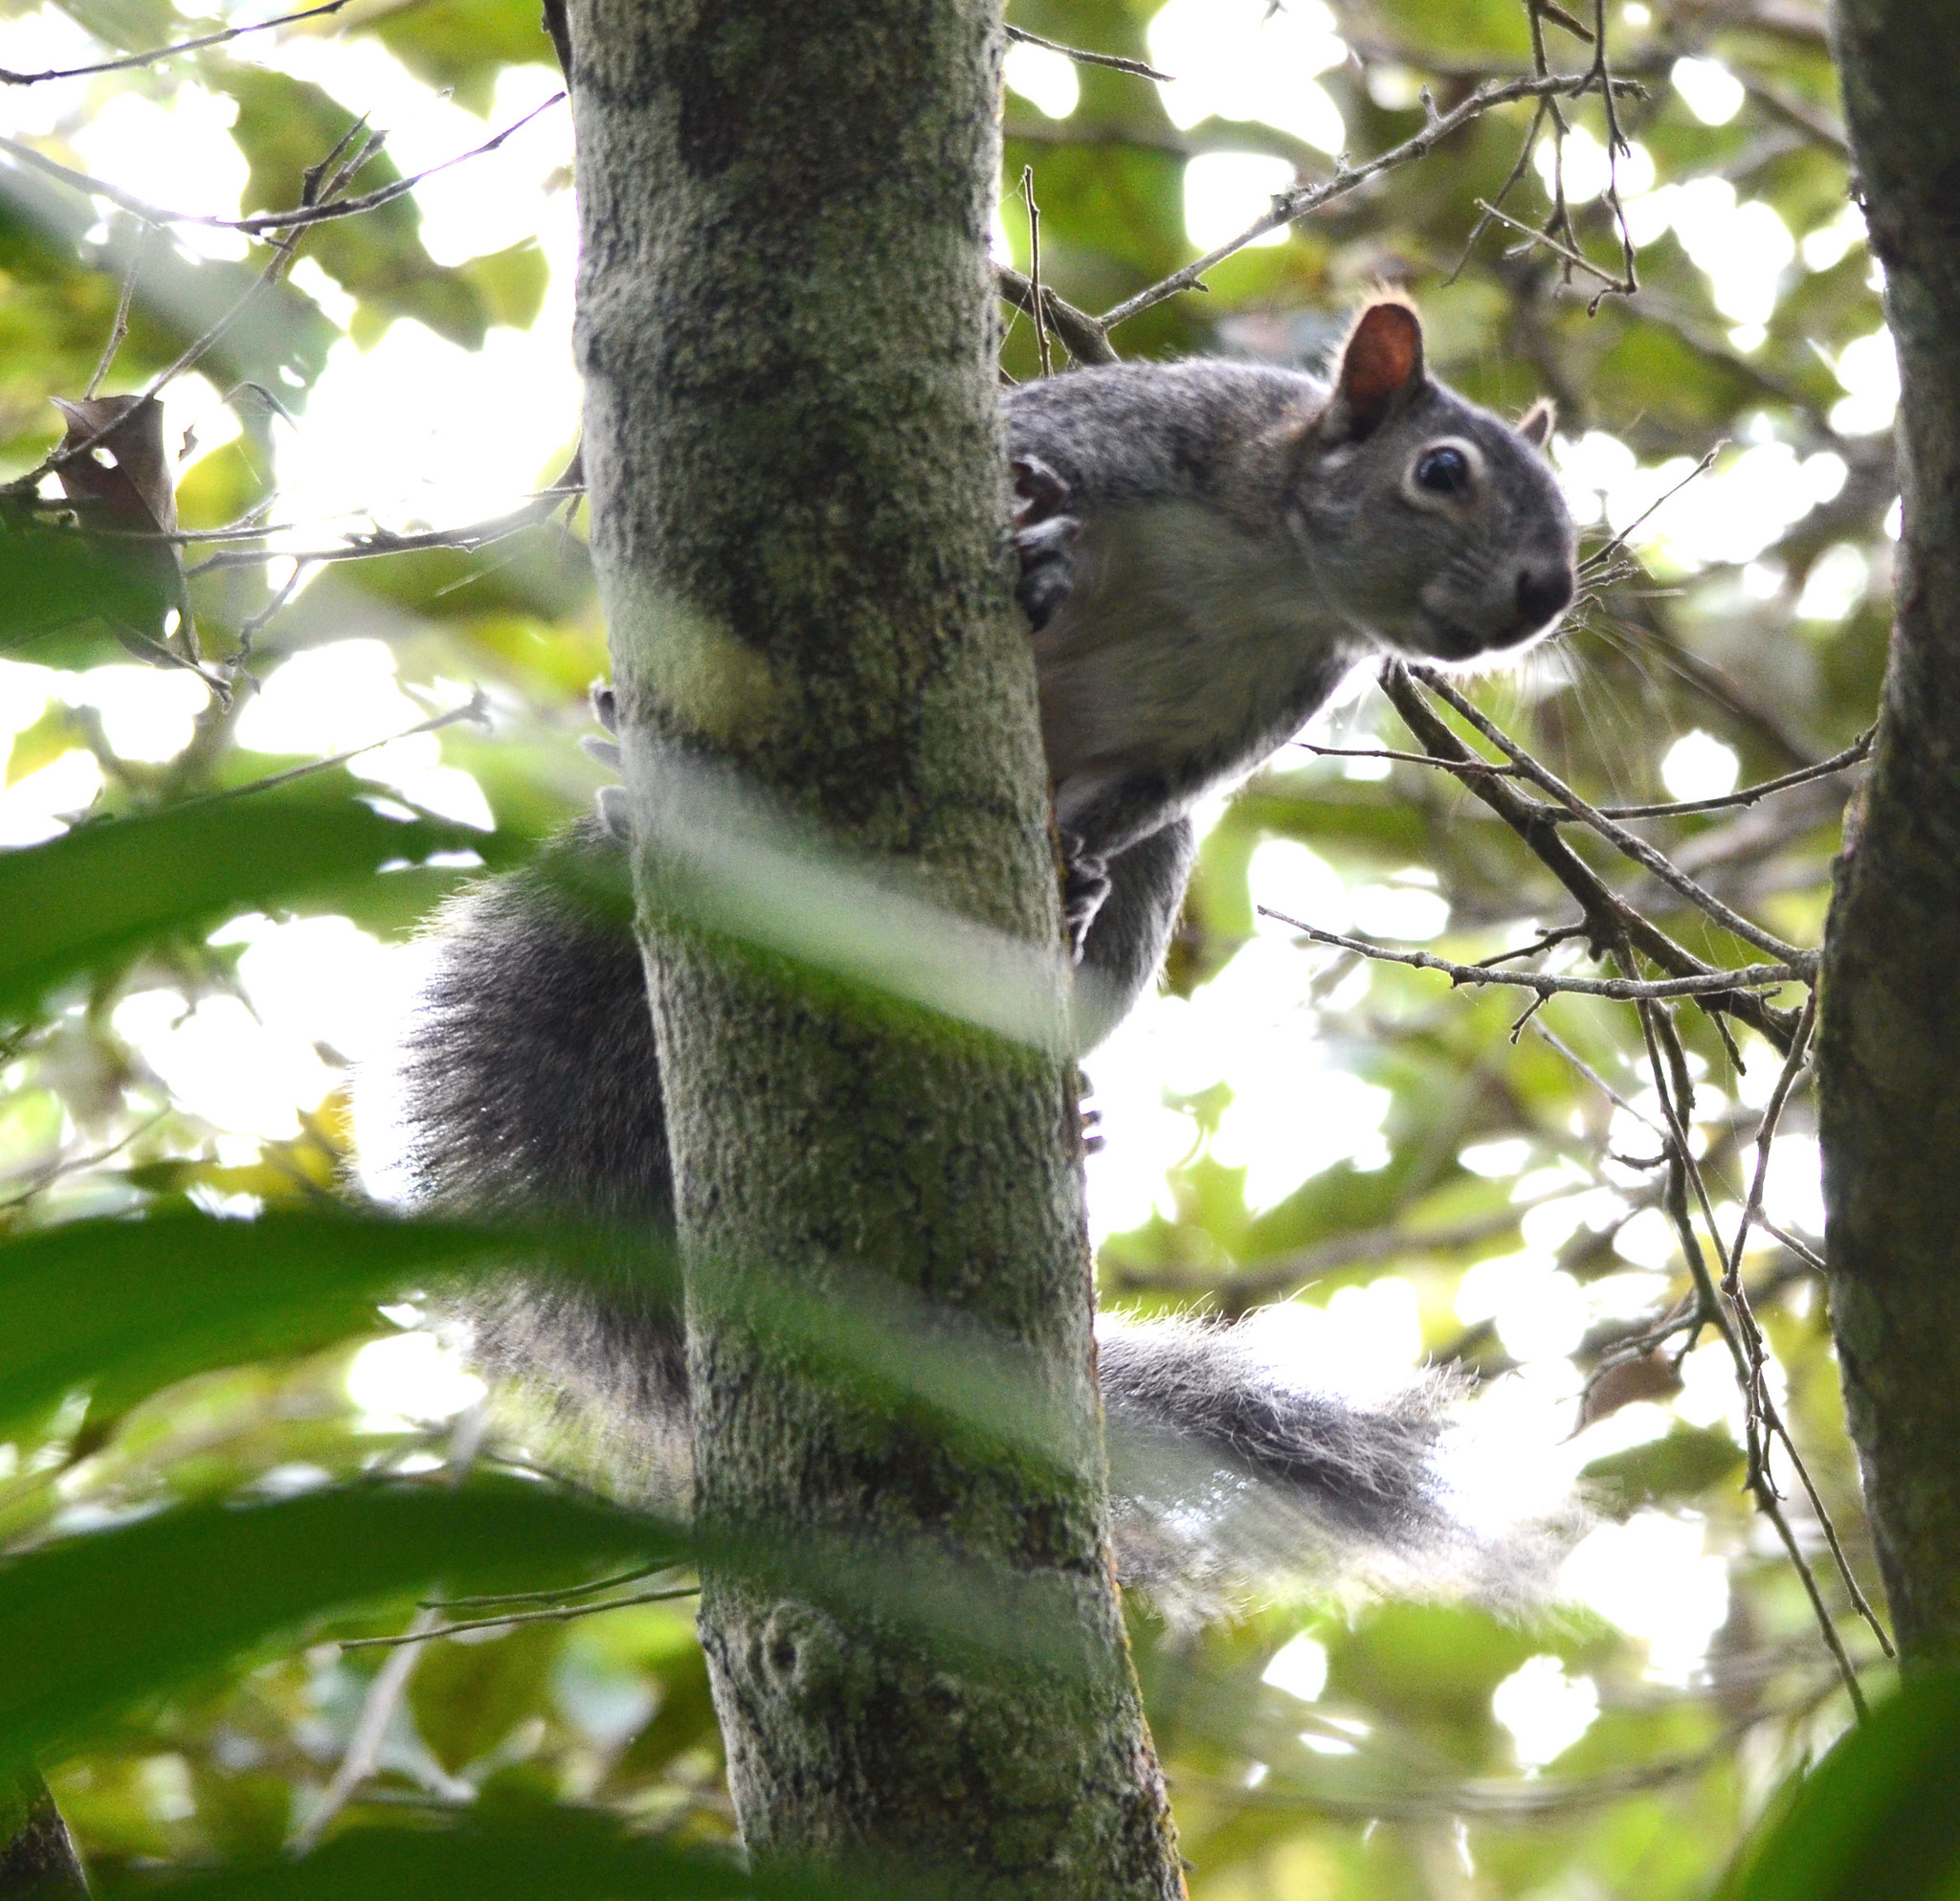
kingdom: Animalia
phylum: Chordata
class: Mammalia
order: Rodentia
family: Sciuridae
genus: Sciurus
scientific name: Sciurus colliaei
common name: Collie's squirrel
